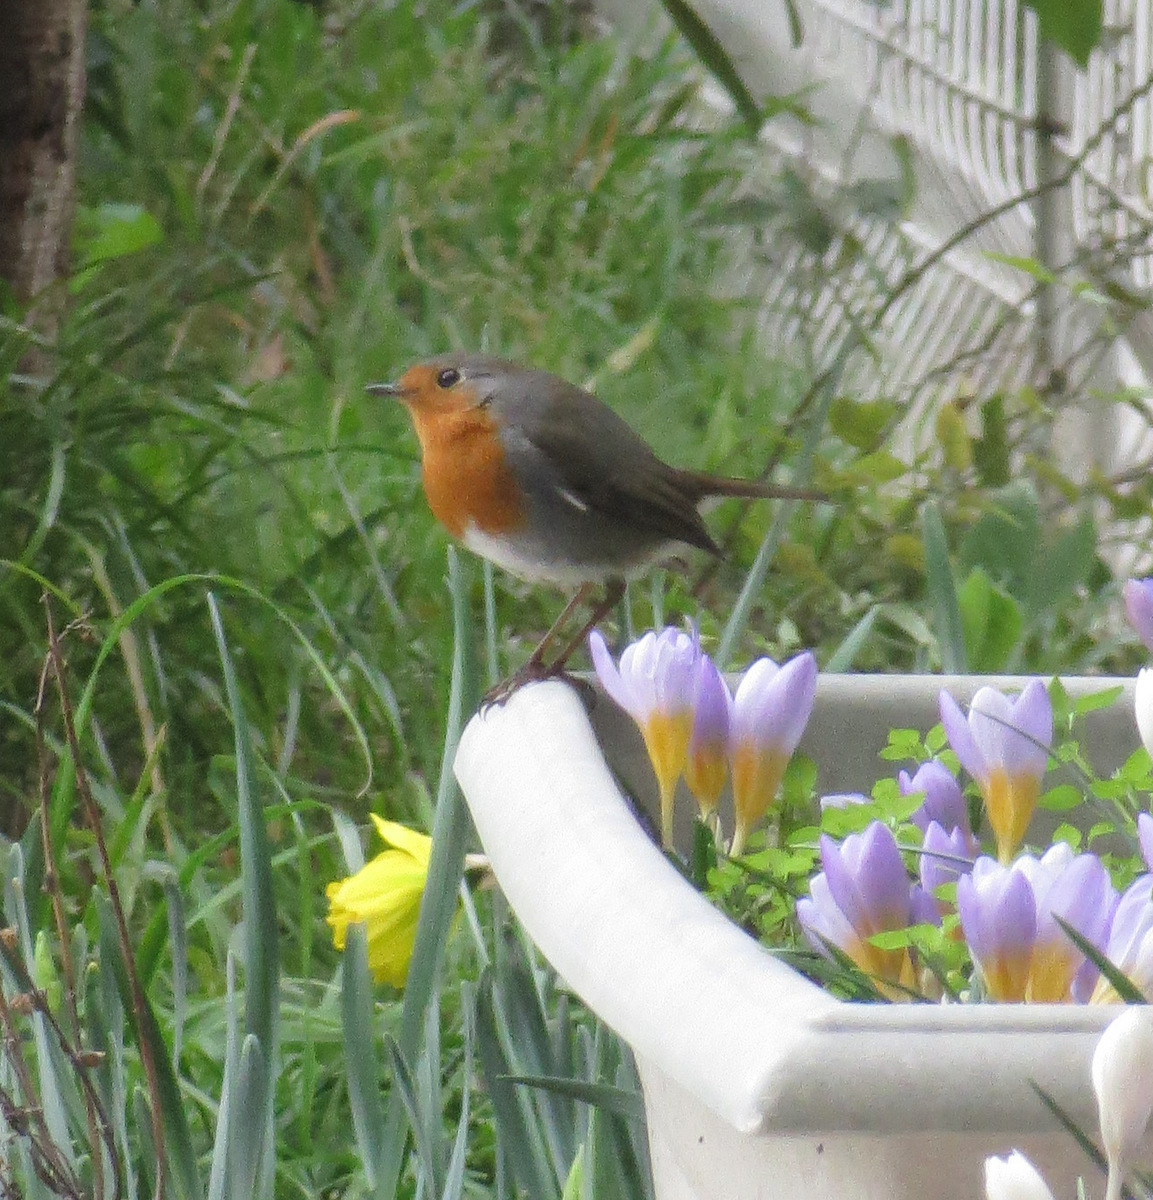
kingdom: Animalia
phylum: Chordata
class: Aves
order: Passeriformes
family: Muscicapidae
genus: Erithacus
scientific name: Erithacus rubecula
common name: European robin
